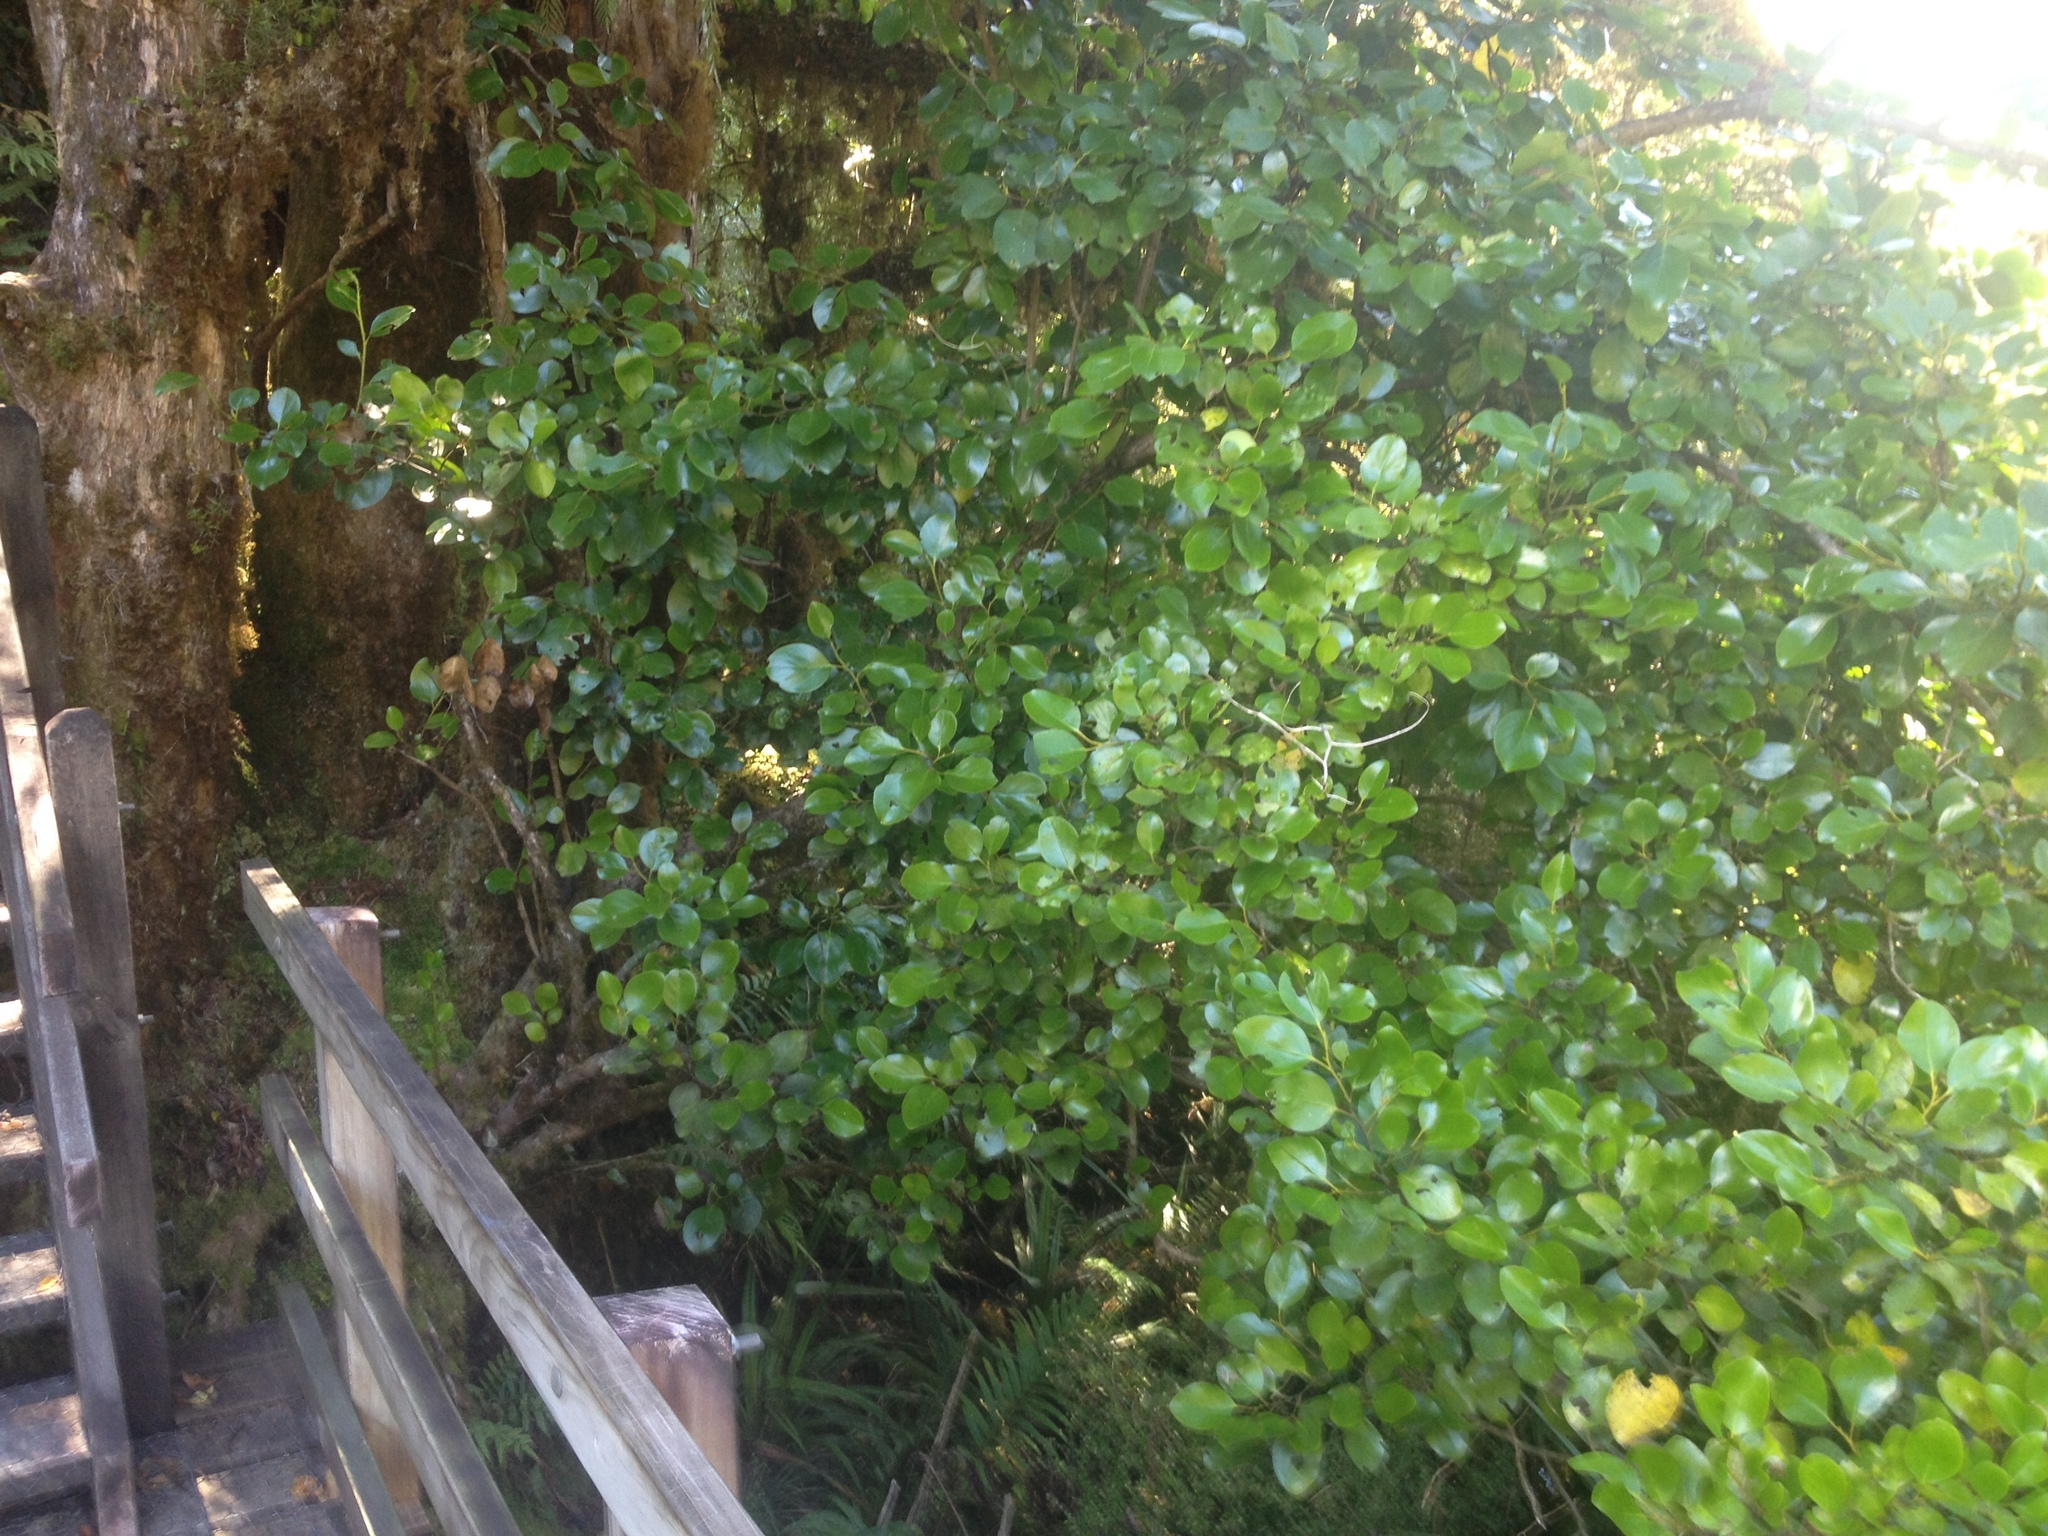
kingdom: Plantae
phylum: Tracheophyta
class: Magnoliopsida
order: Apiales
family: Griseliniaceae
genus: Griselinia
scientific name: Griselinia littoralis
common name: New zealand broadleaf
